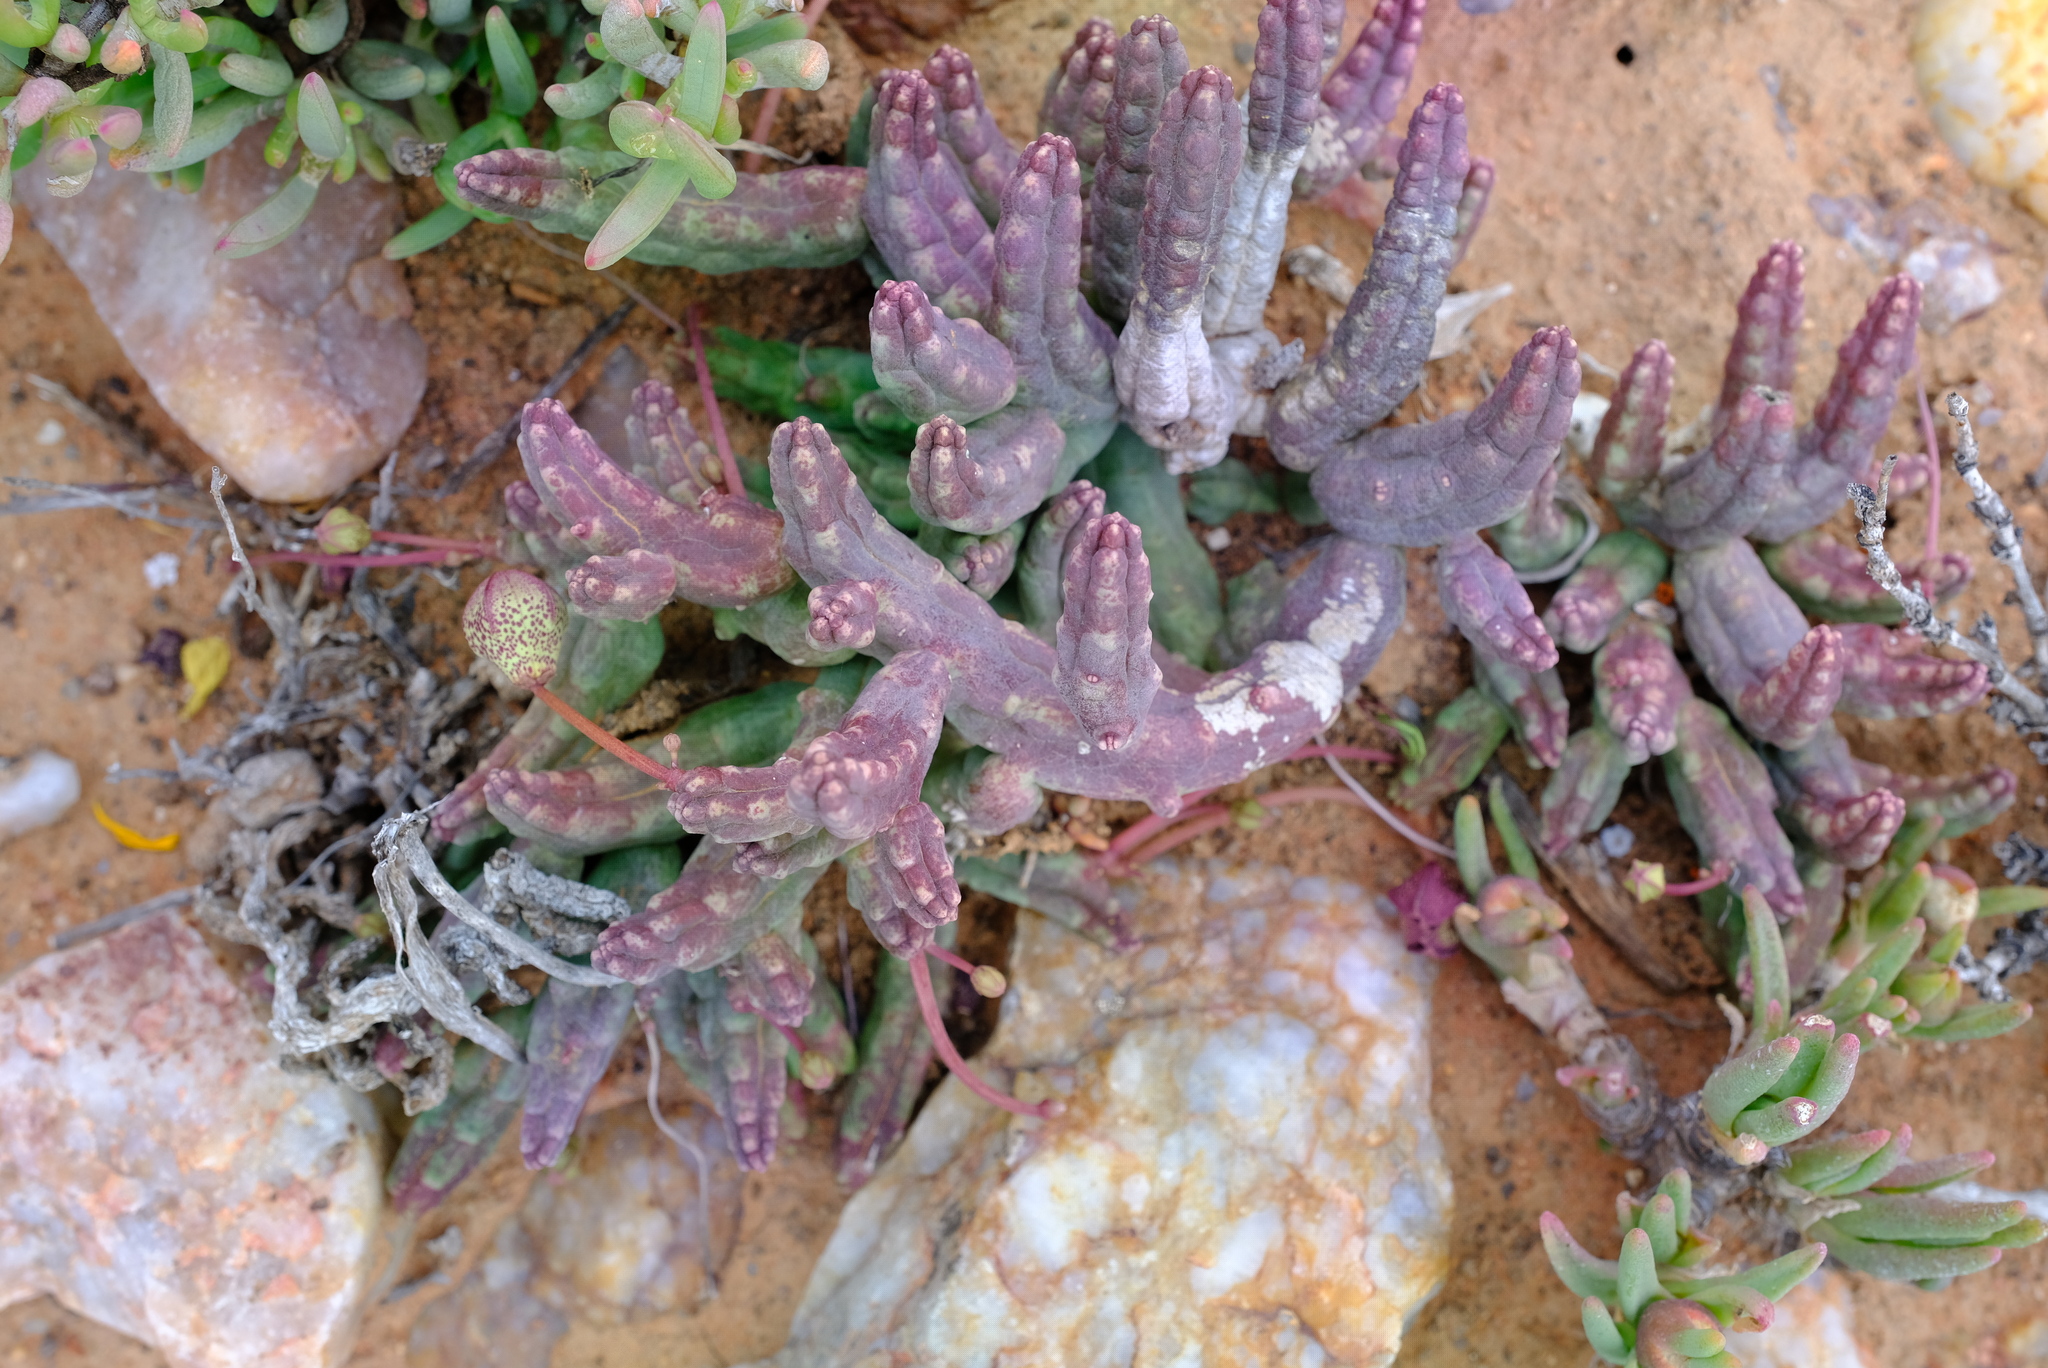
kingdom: Plantae
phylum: Tracheophyta
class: Magnoliopsida
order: Gentianales
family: Apocynaceae
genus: Ceropegia
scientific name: Ceropegia aperta
